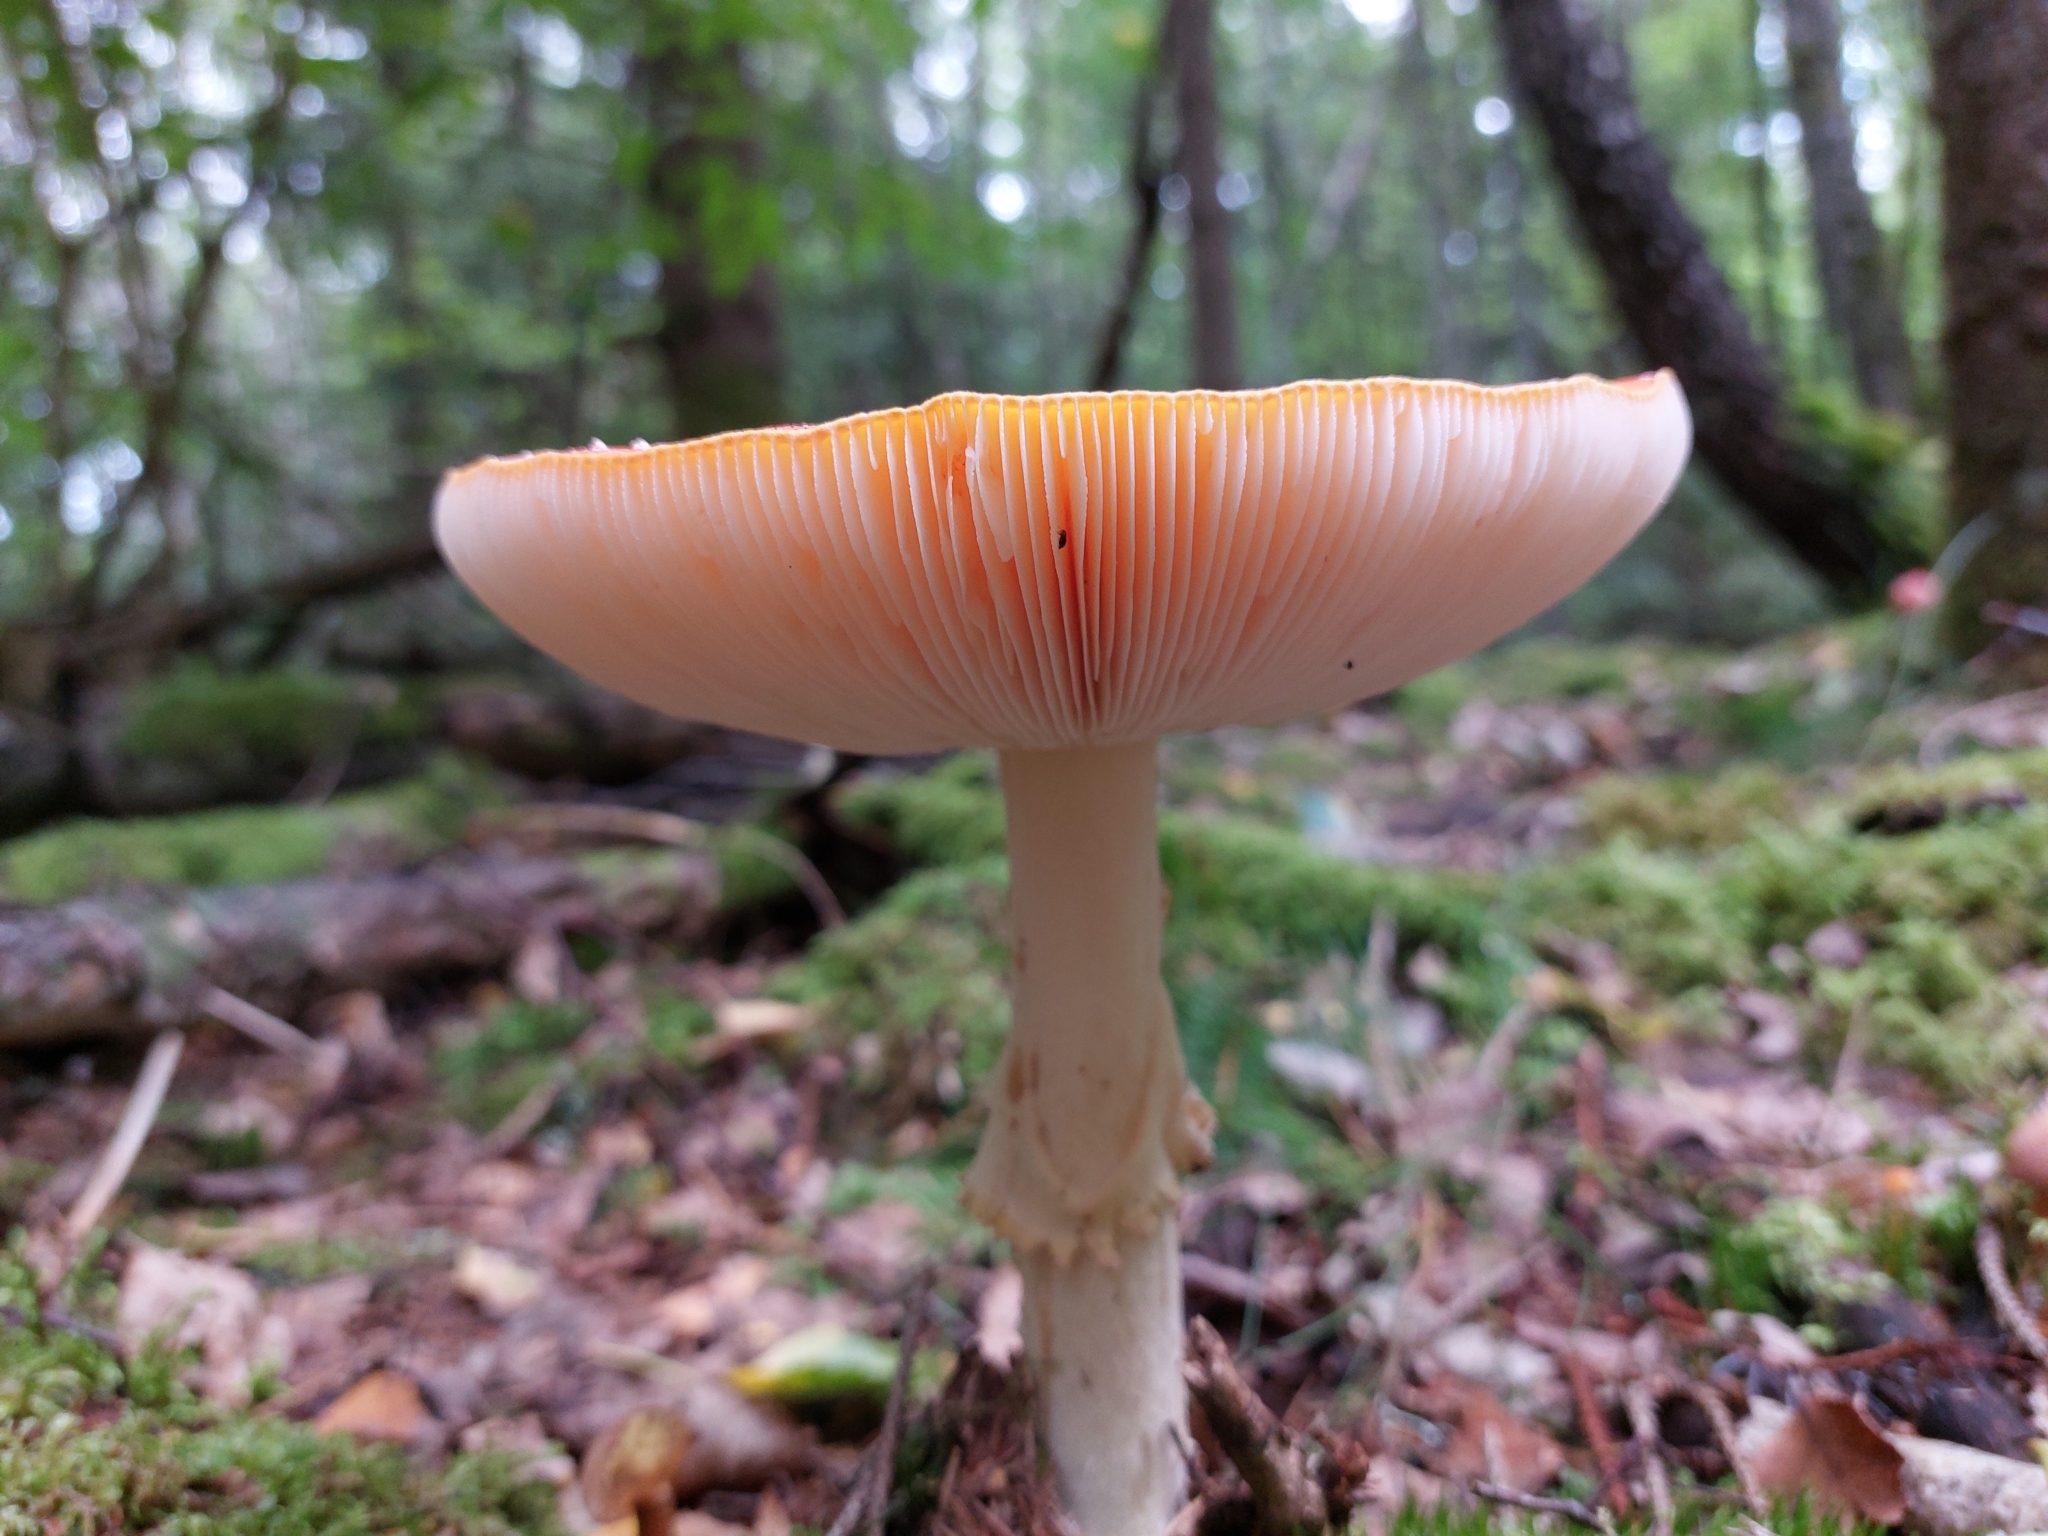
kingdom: Fungi
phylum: Basidiomycota
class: Agaricomycetes
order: Agaricales
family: Amanitaceae
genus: Amanita
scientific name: Amanita muscaria
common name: Fly agaric
